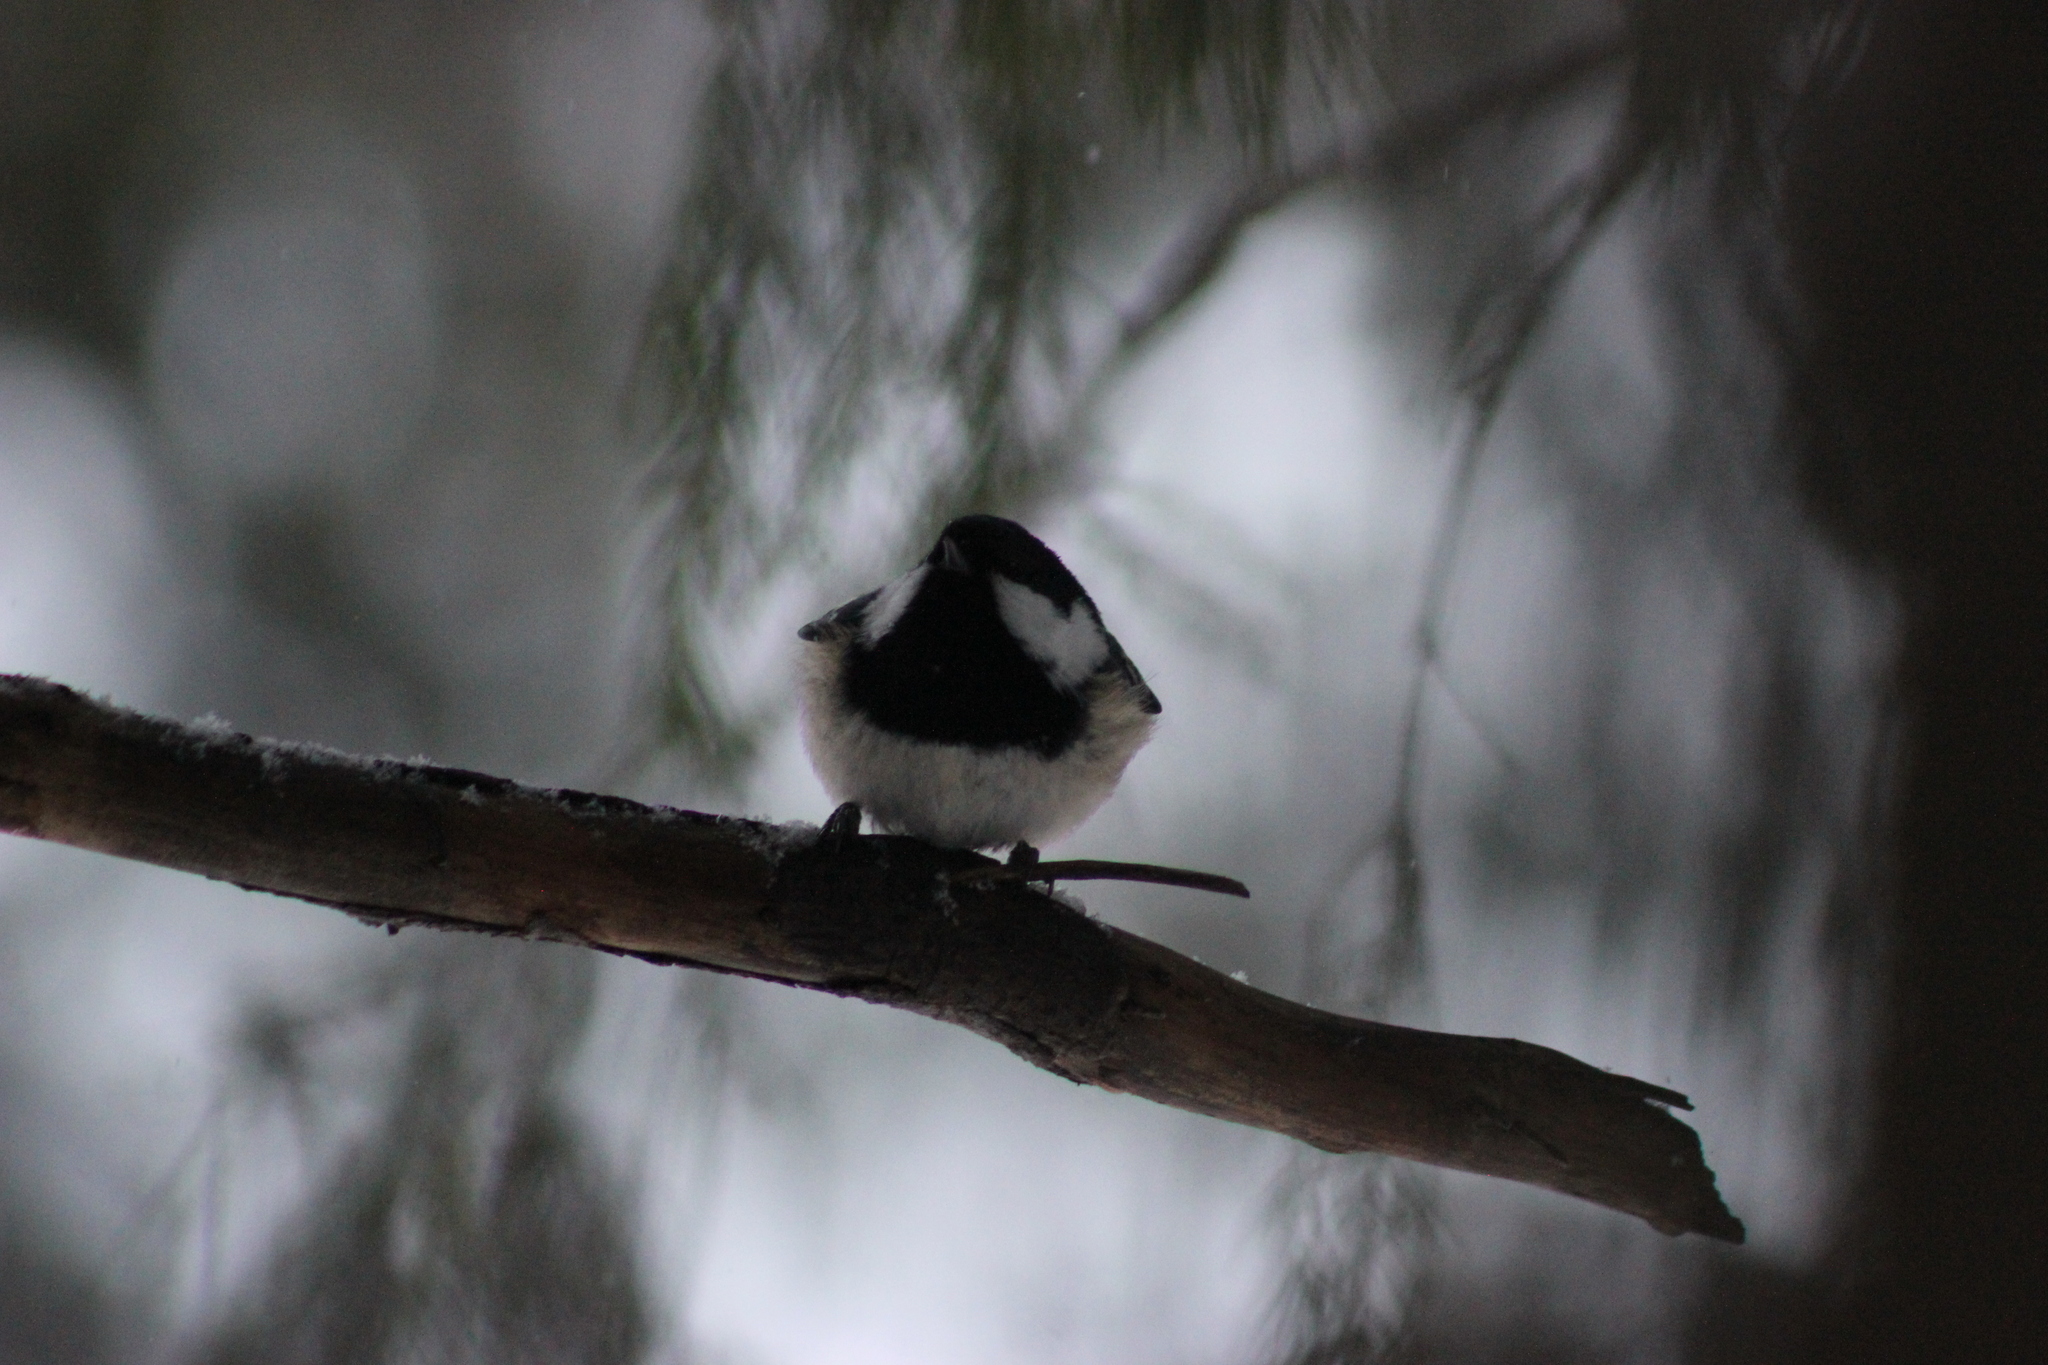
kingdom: Animalia
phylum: Chordata
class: Aves
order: Passeriformes
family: Paridae
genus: Periparus
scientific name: Periparus ater
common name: Coal tit
